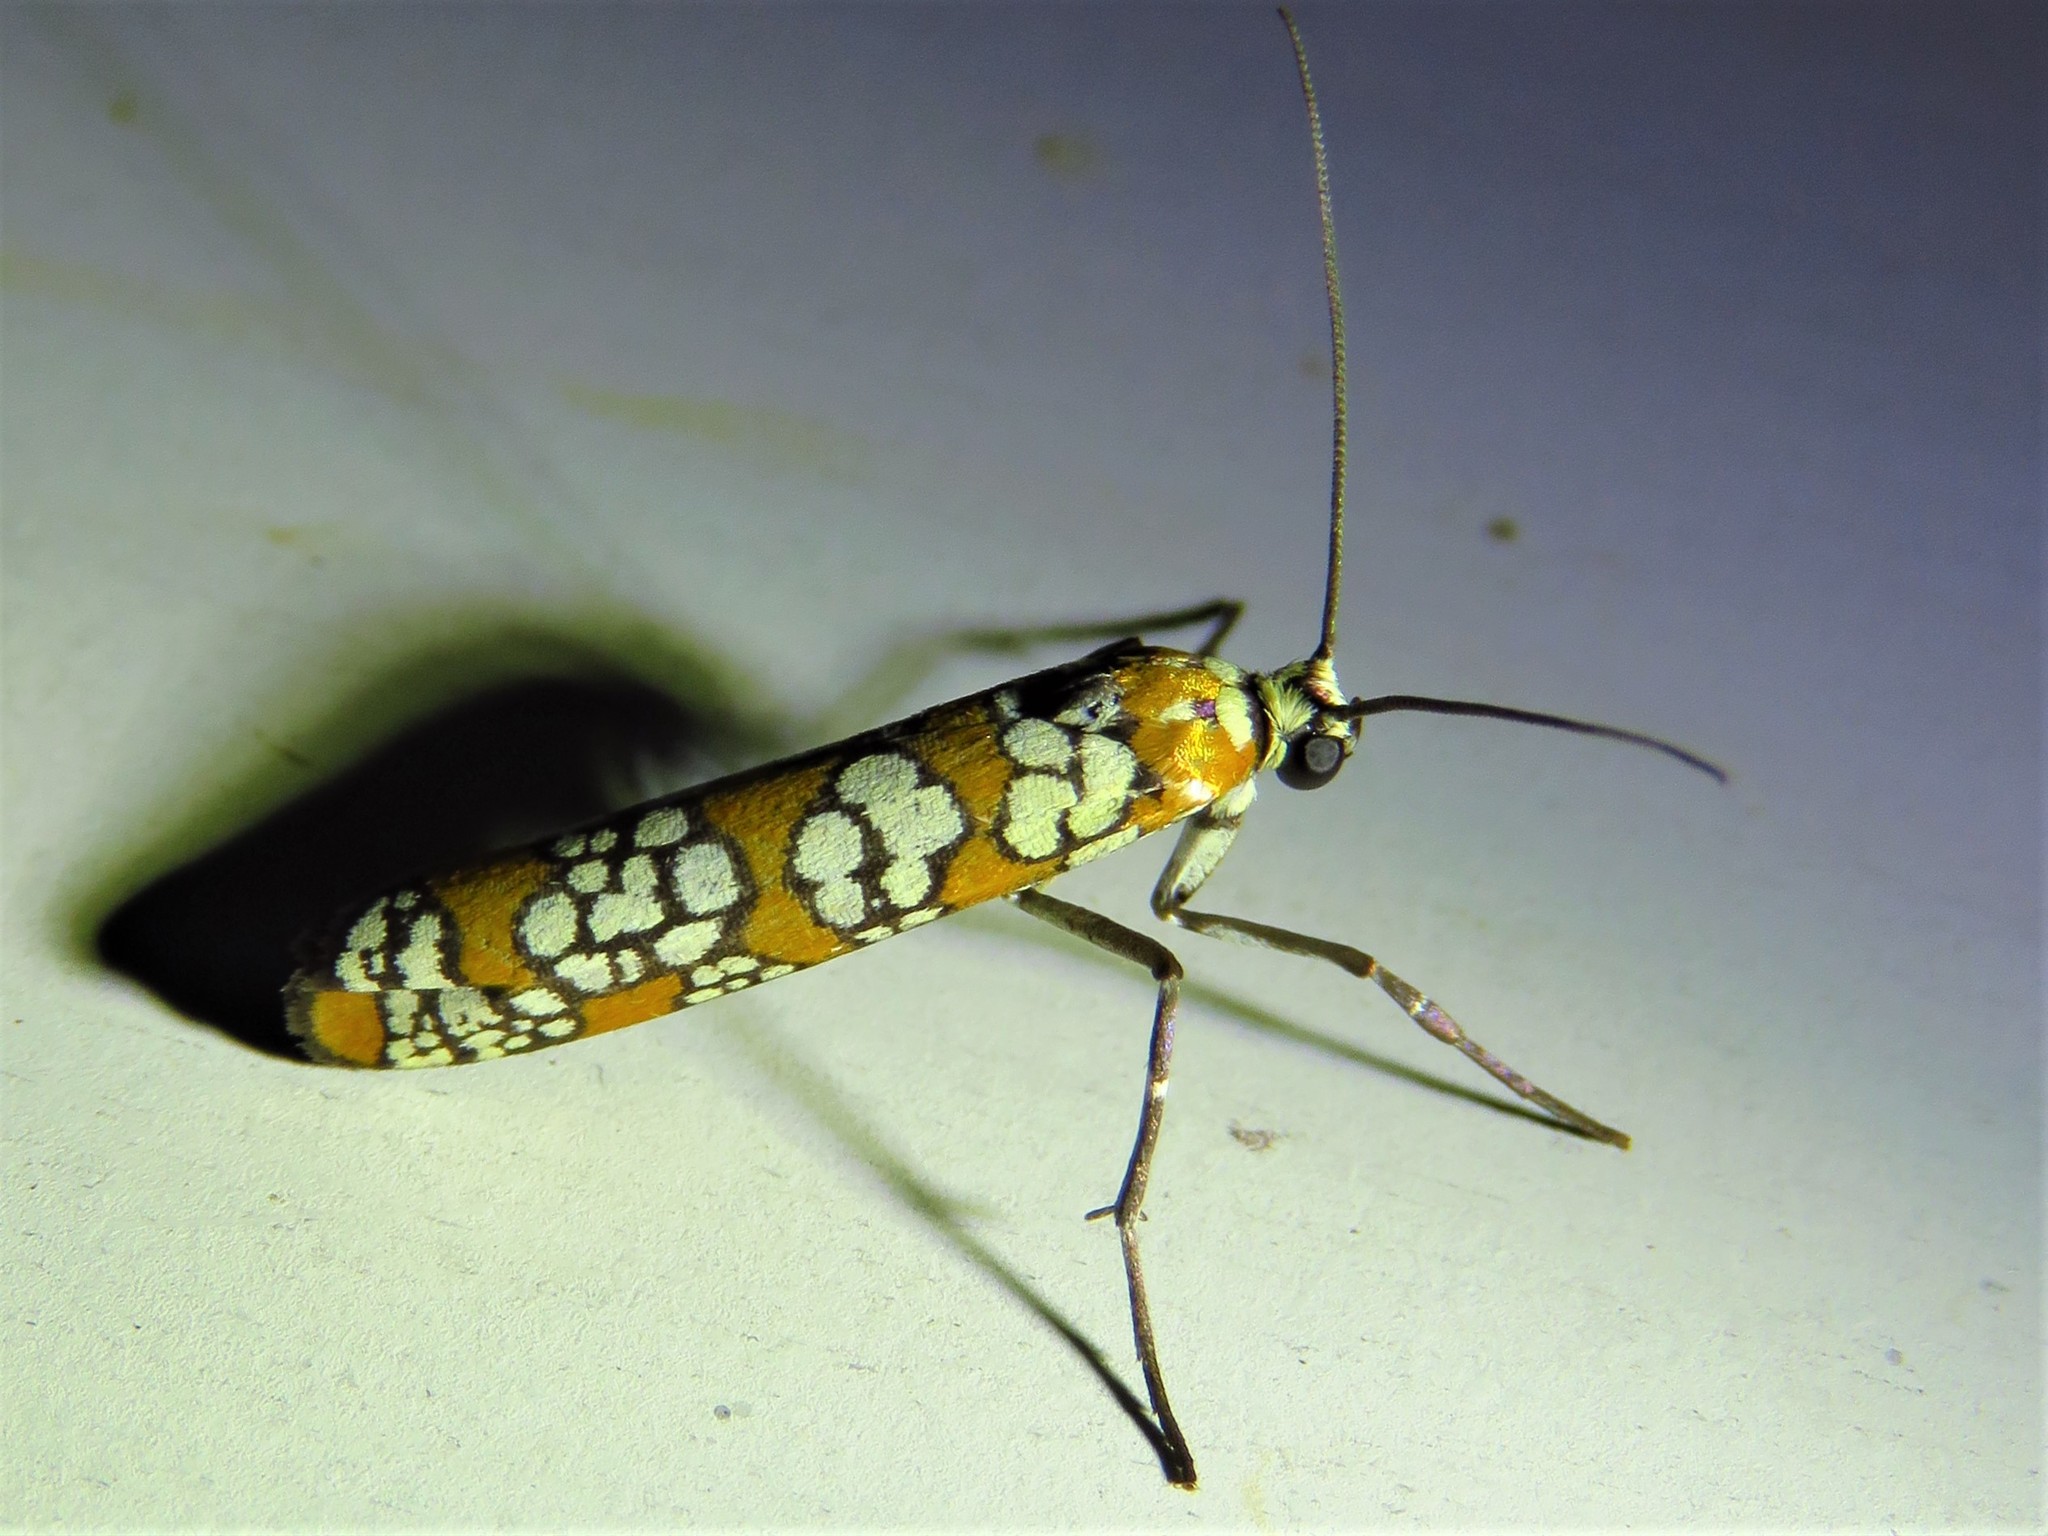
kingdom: Animalia
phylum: Arthropoda
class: Insecta
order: Lepidoptera
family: Attevidae
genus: Atteva
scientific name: Atteva punctella
